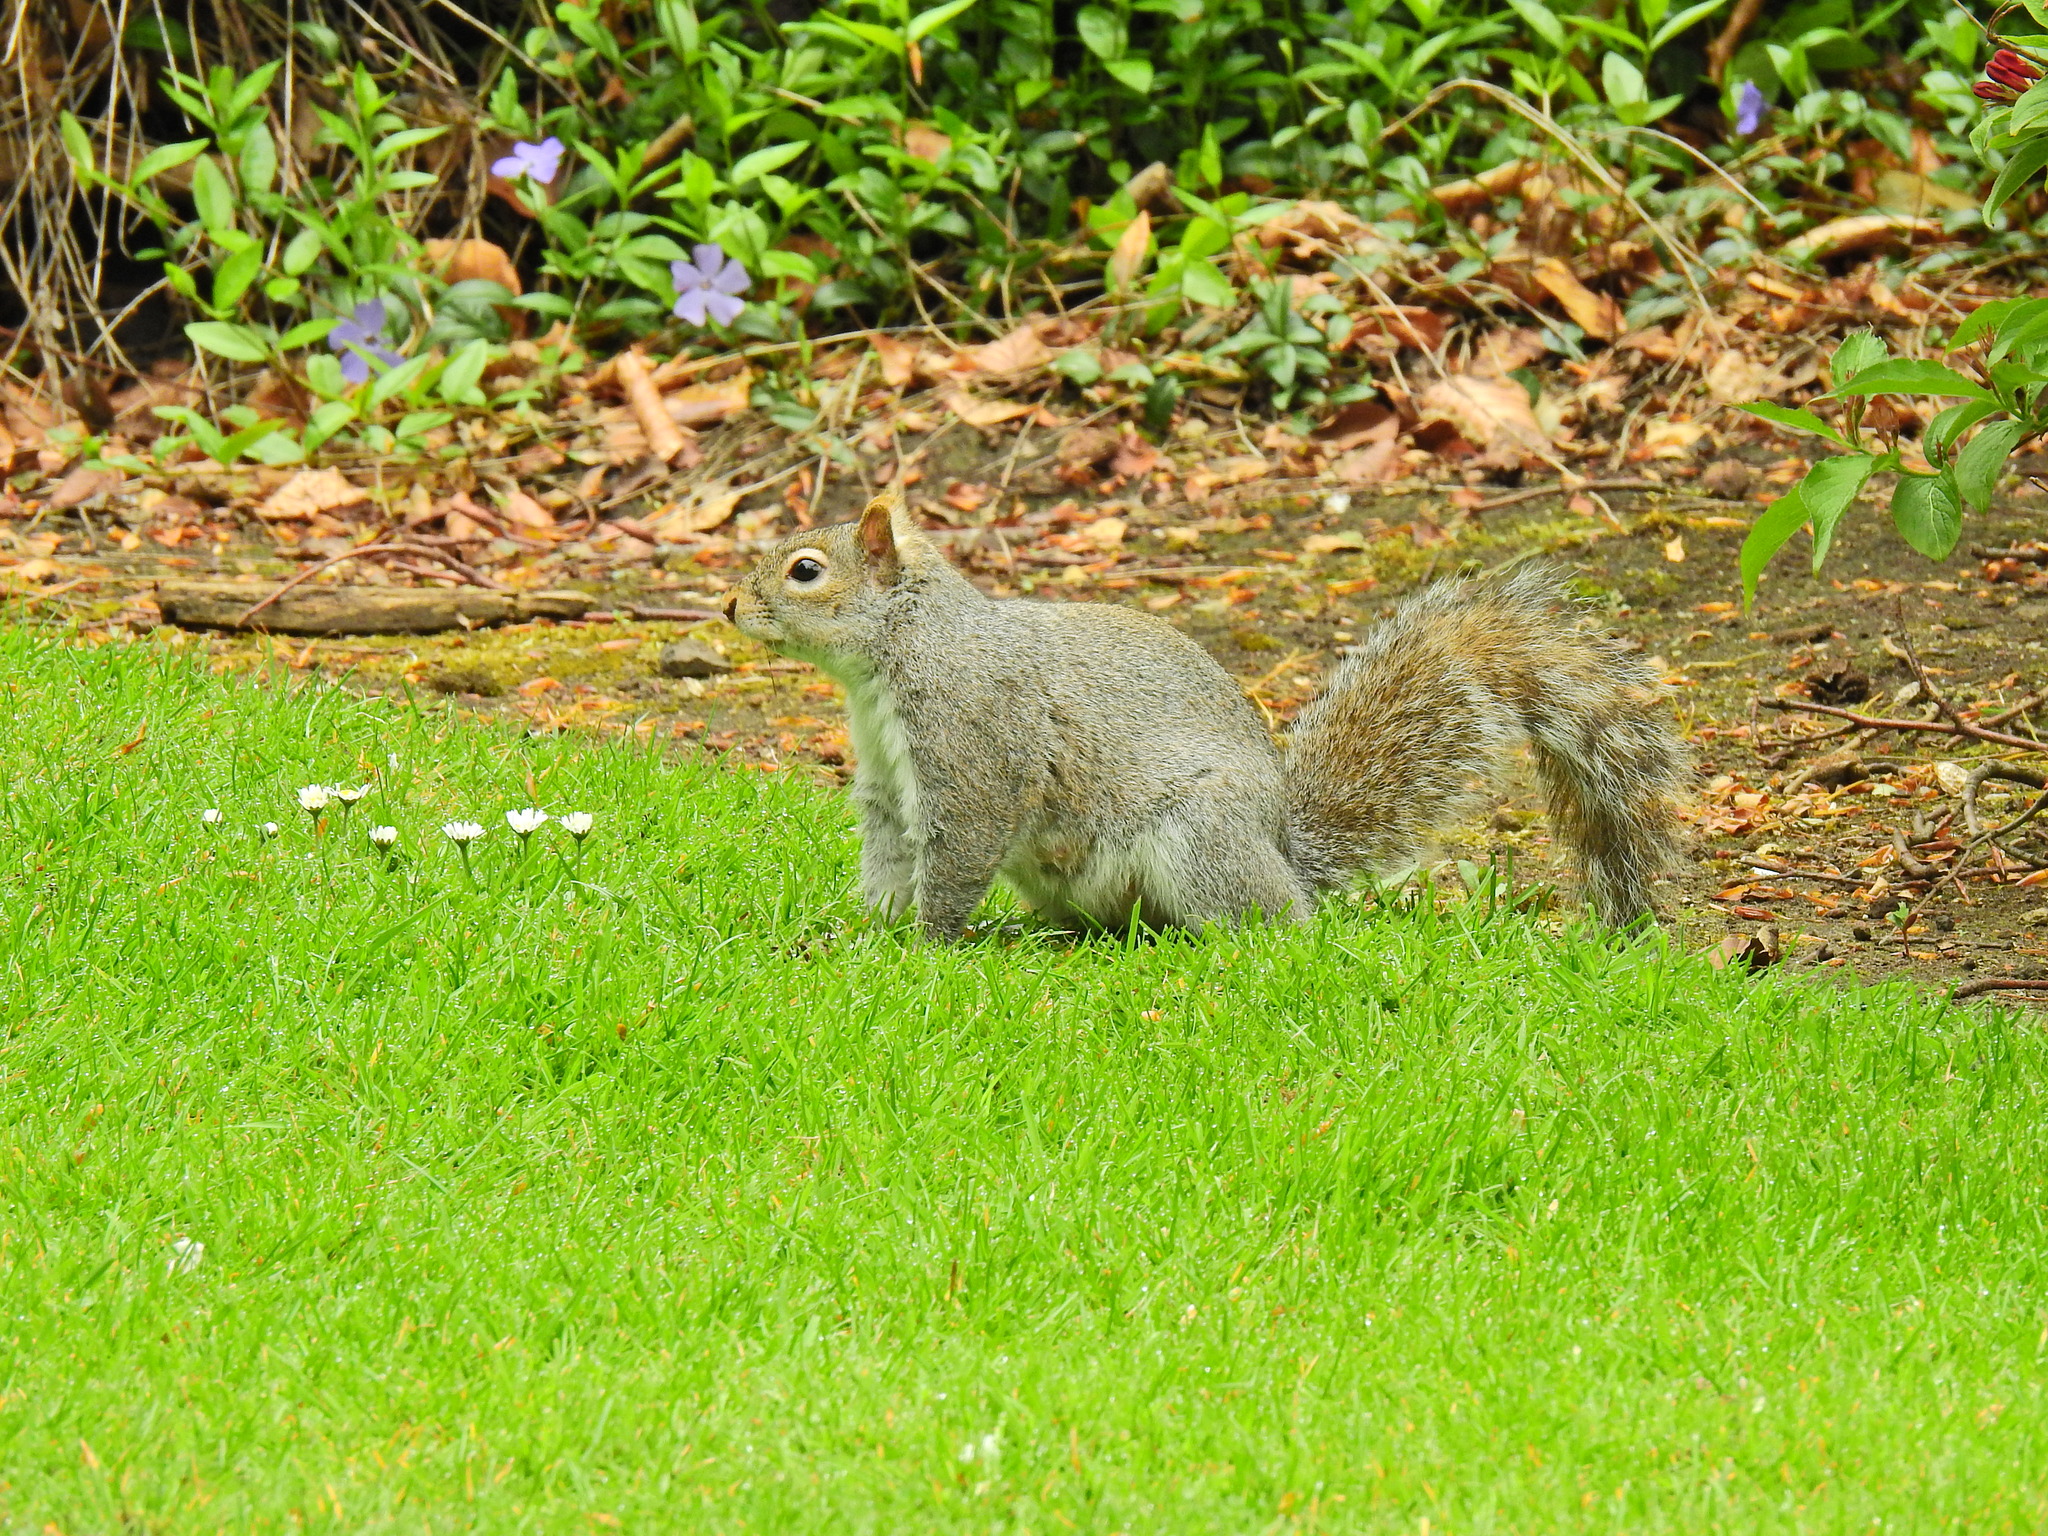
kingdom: Animalia
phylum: Chordata
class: Mammalia
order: Rodentia
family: Sciuridae
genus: Sciurus
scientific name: Sciurus carolinensis
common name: Eastern gray squirrel
